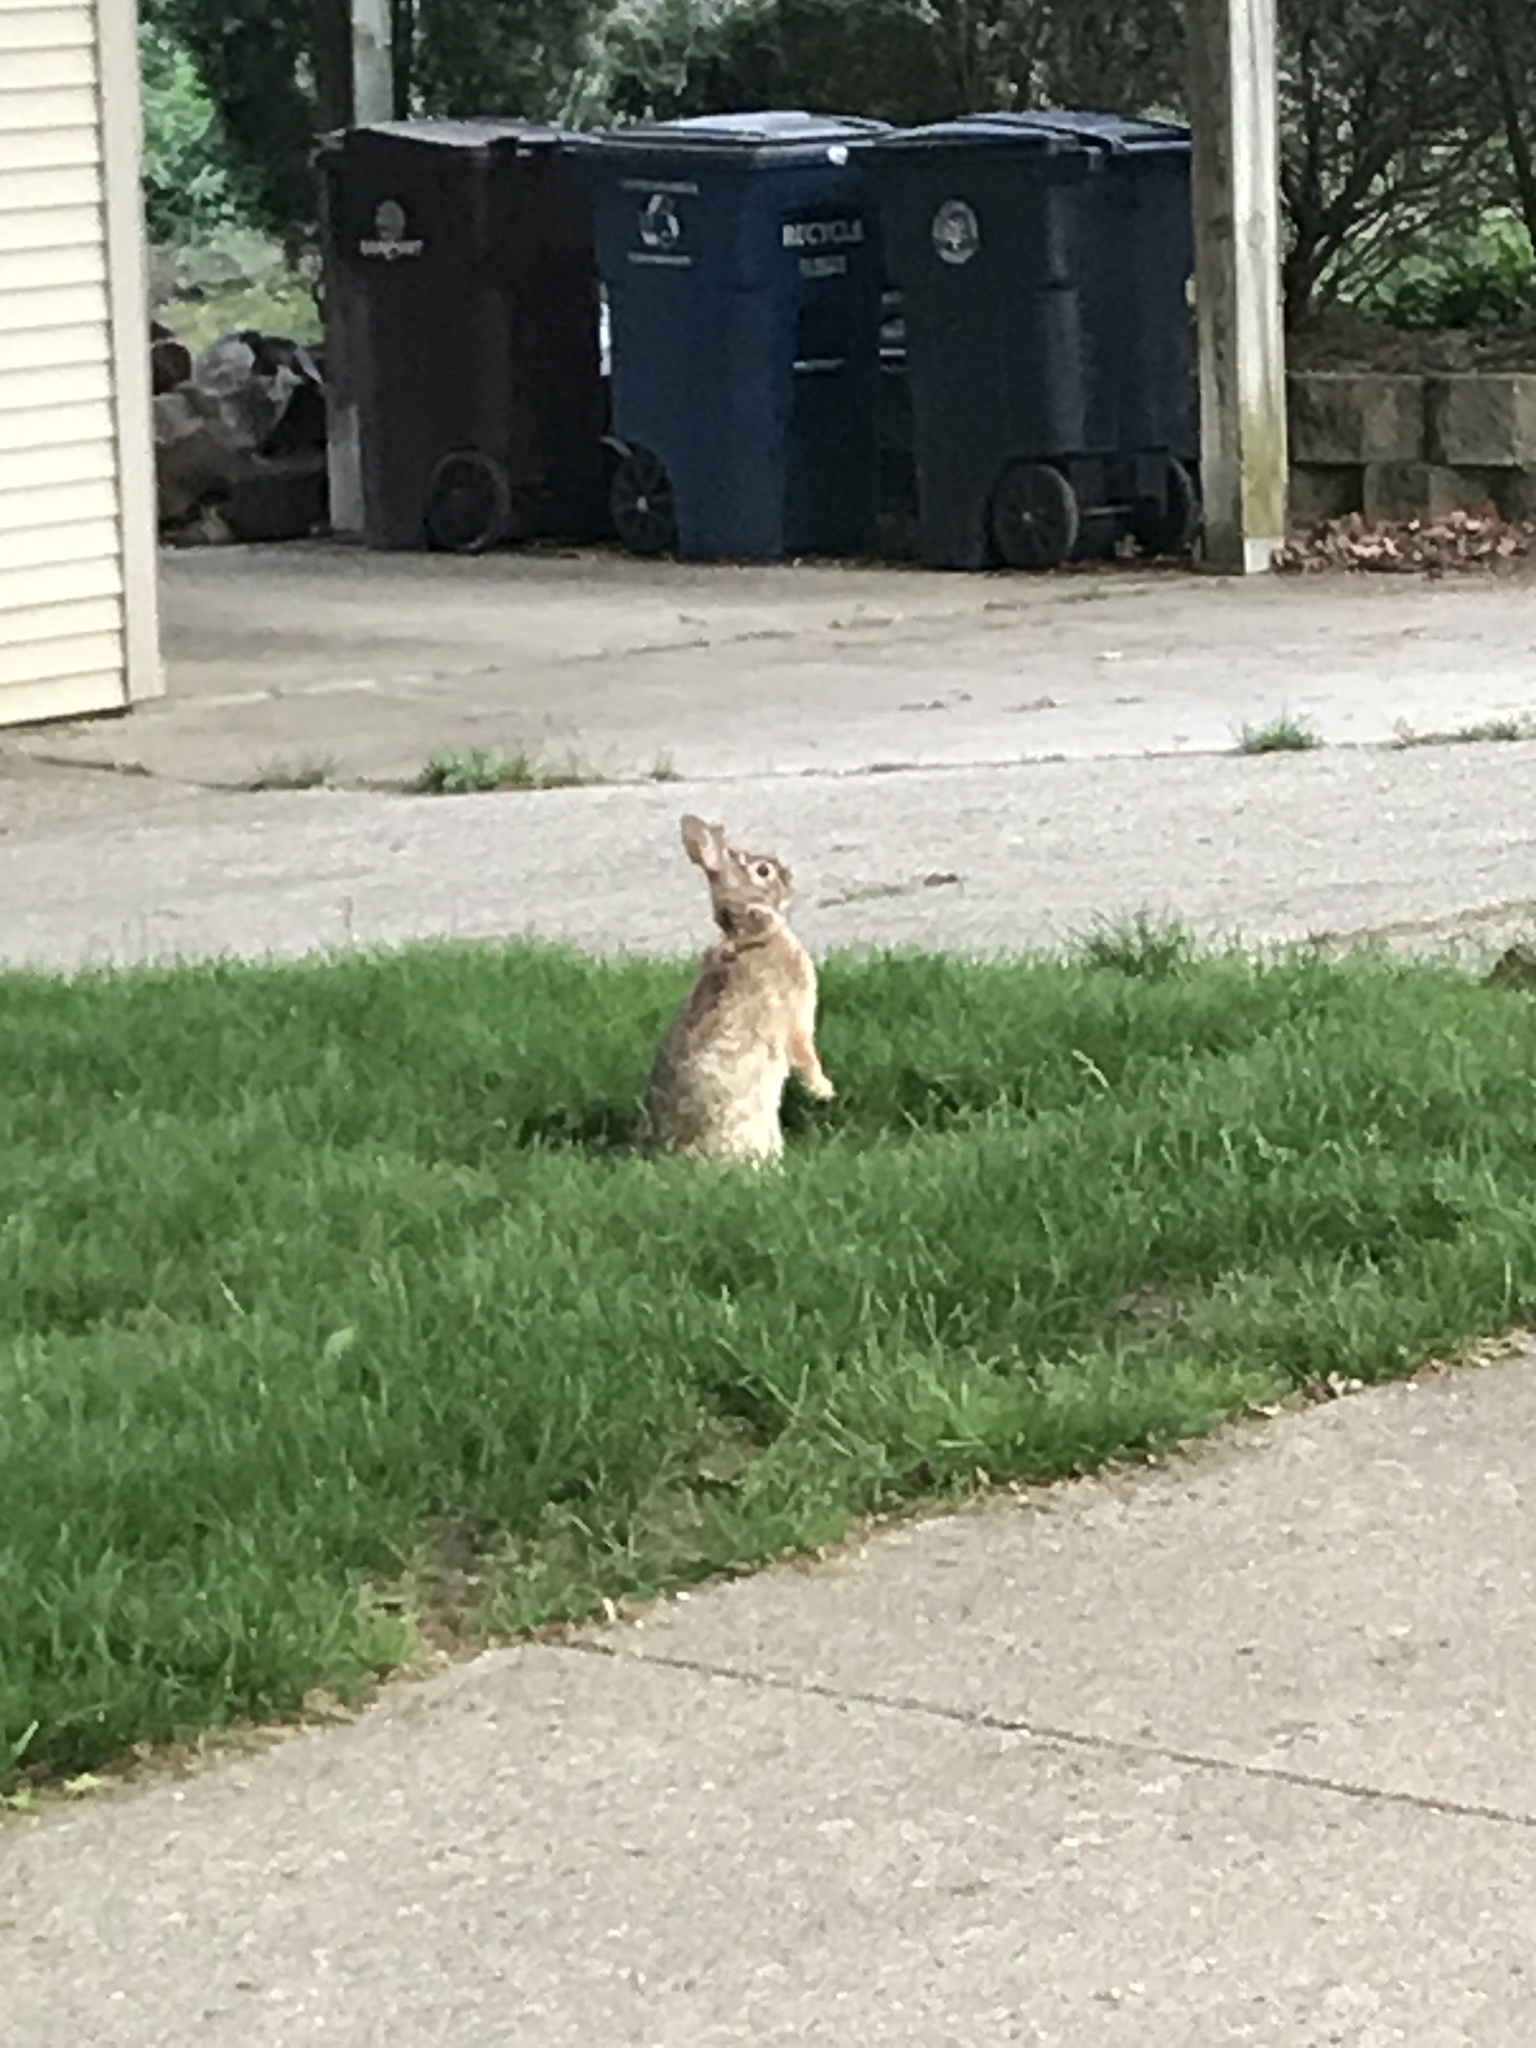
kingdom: Animalia
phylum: Chordata
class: Mammalia
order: Lagomorpha
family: Leporidae
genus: Sylvilagus
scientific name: Sylvilagus floridanus
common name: Eastern cottontail
